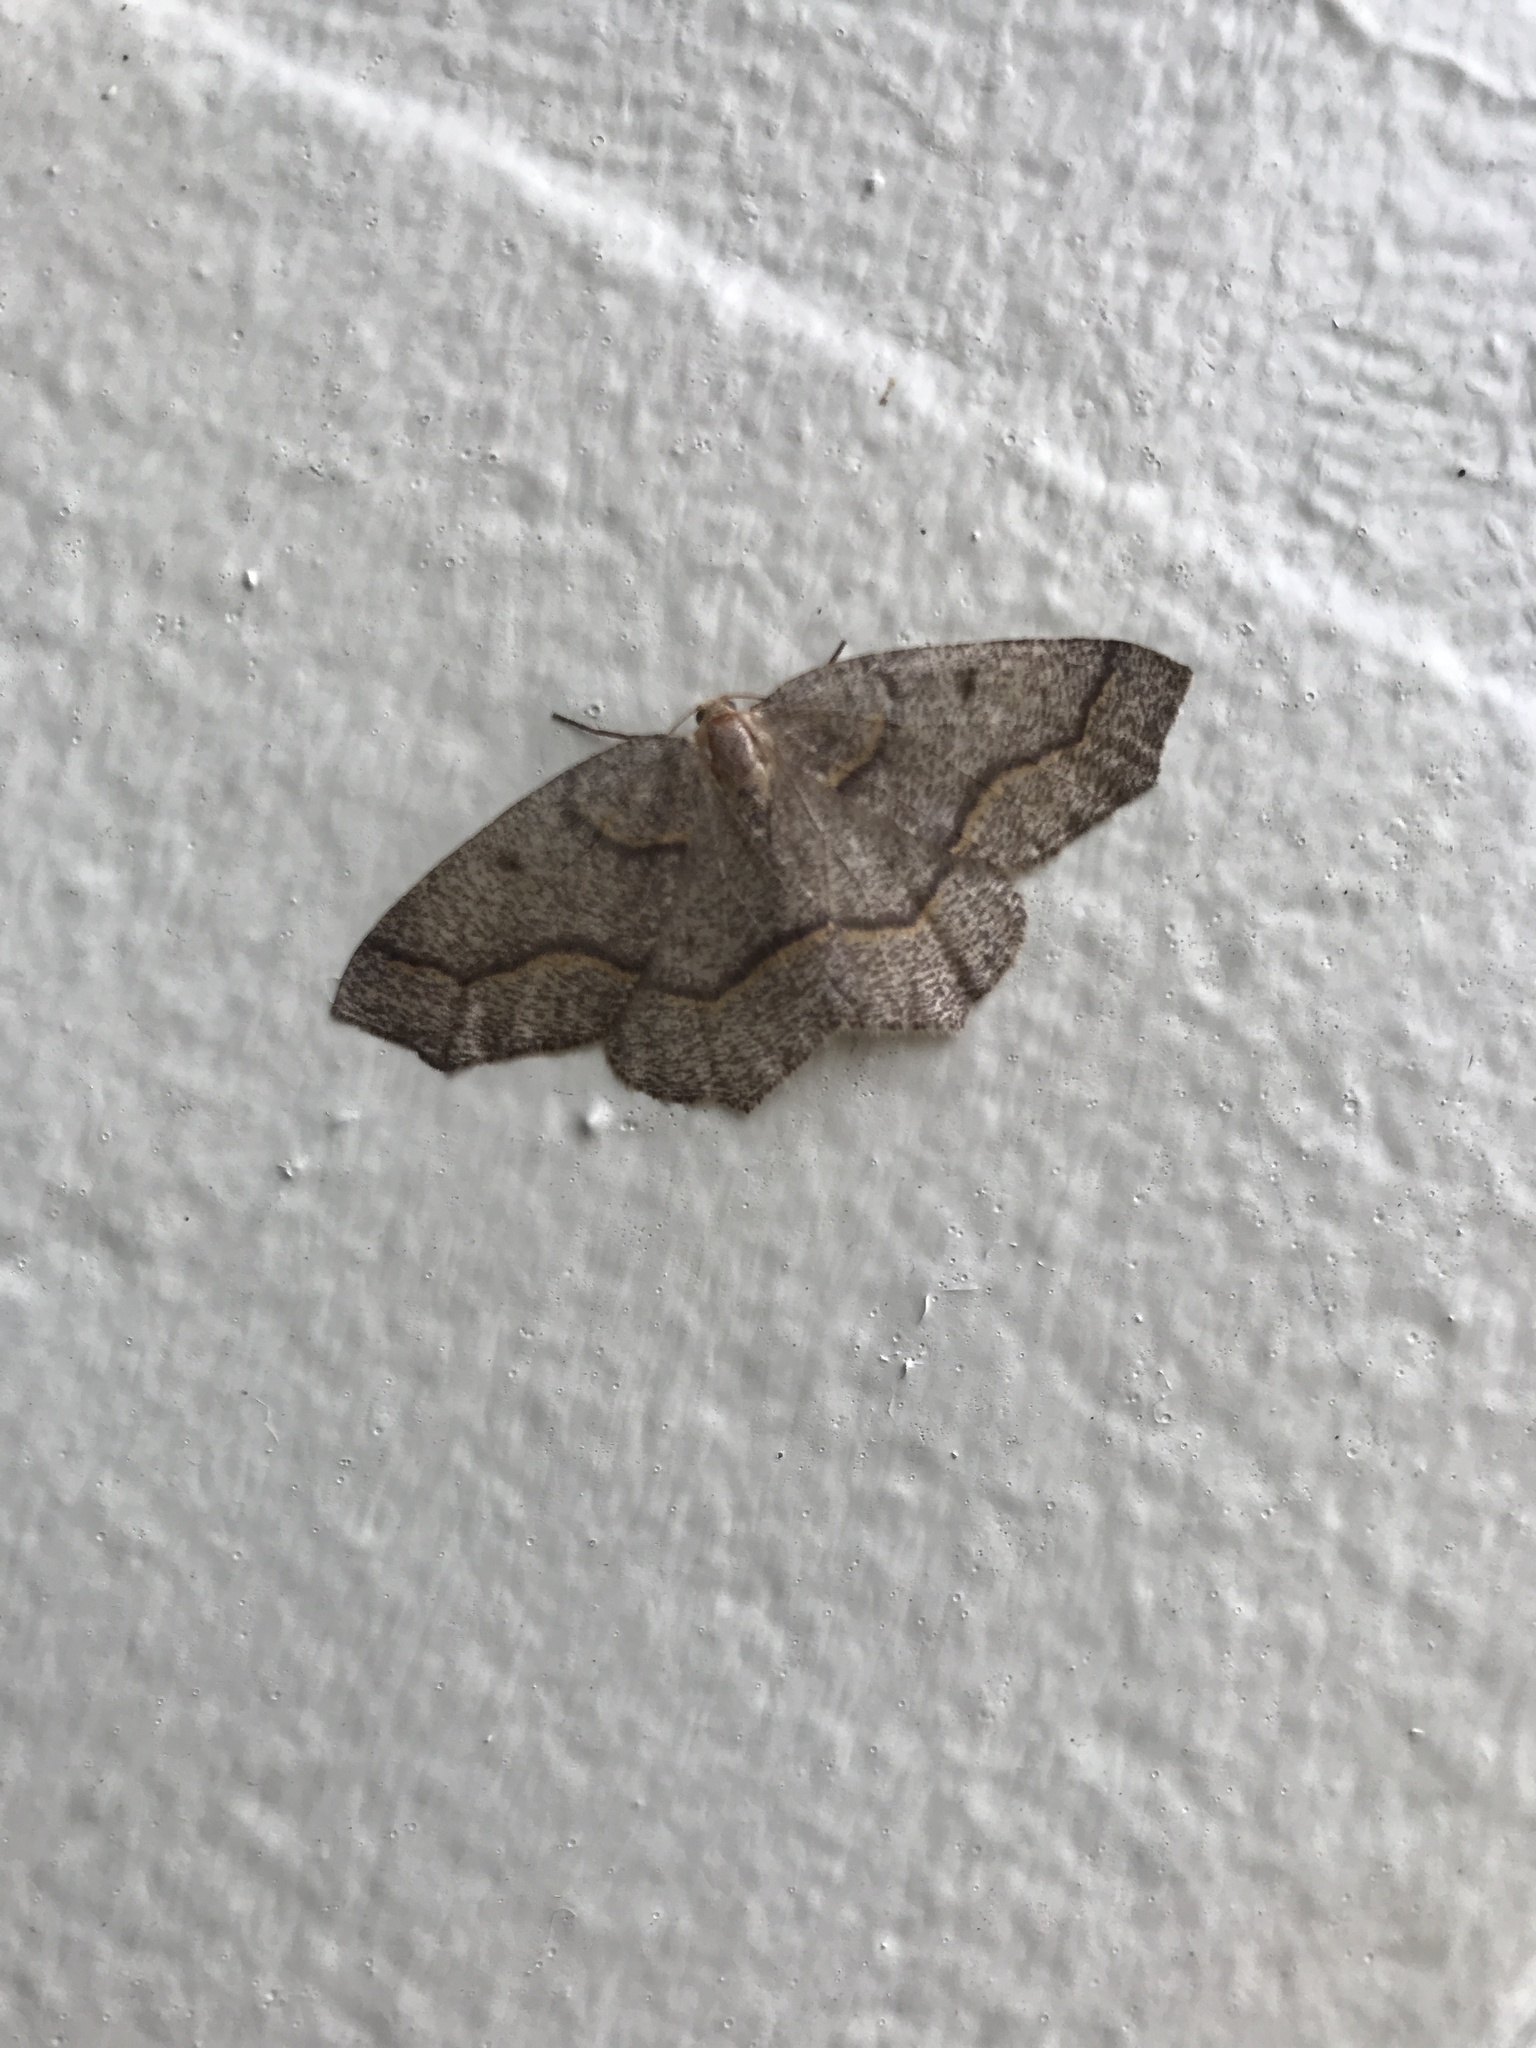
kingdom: Animalia
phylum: Arthropoda
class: Insecta
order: Lepidoptera
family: Geometridae
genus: Lambdina
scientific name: Lambdina fiscellaria
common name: Hemlock looper
